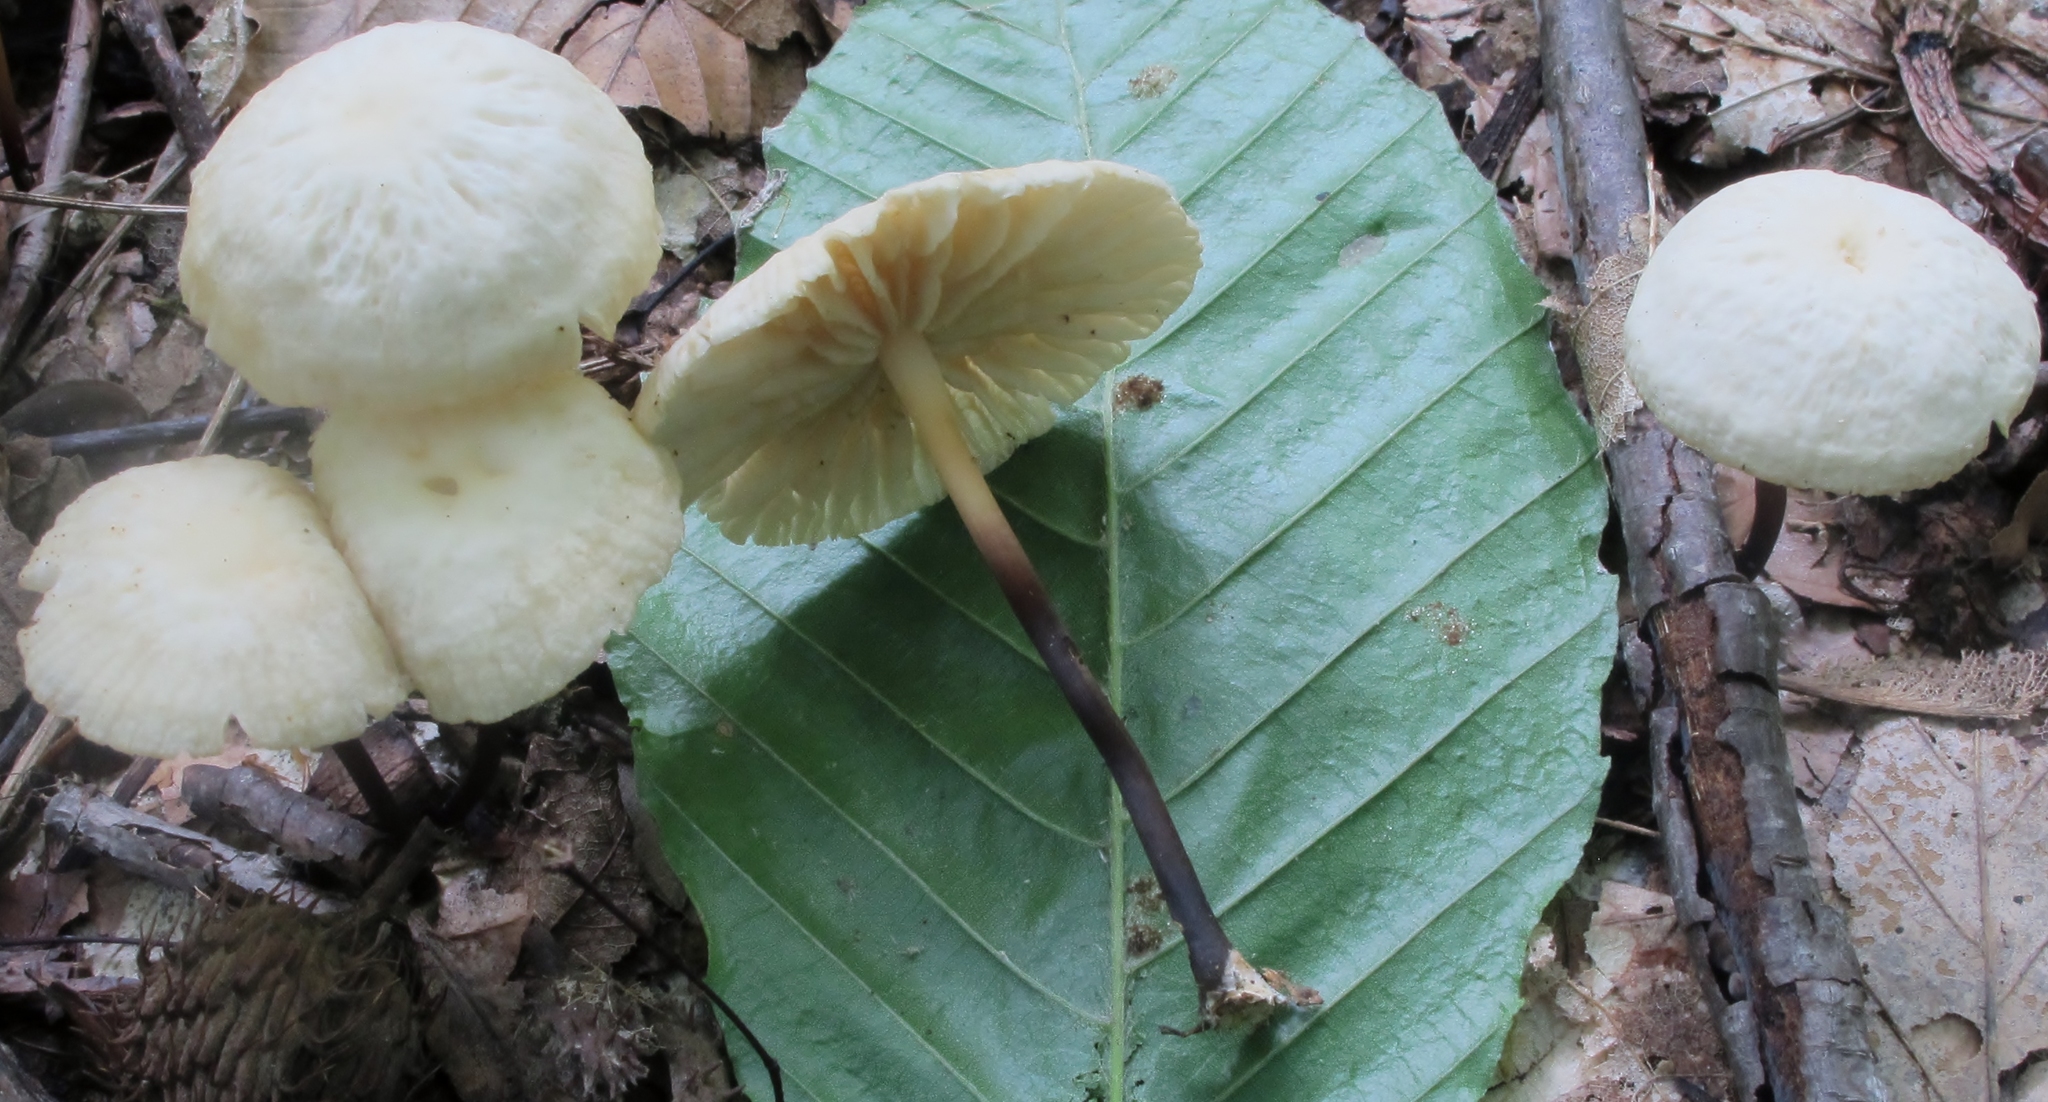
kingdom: Fungi
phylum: Basidiomycota
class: Agaricomycetes
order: Agaricales
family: Marasmiaceae
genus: Marasmius
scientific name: Marasmius delectans
